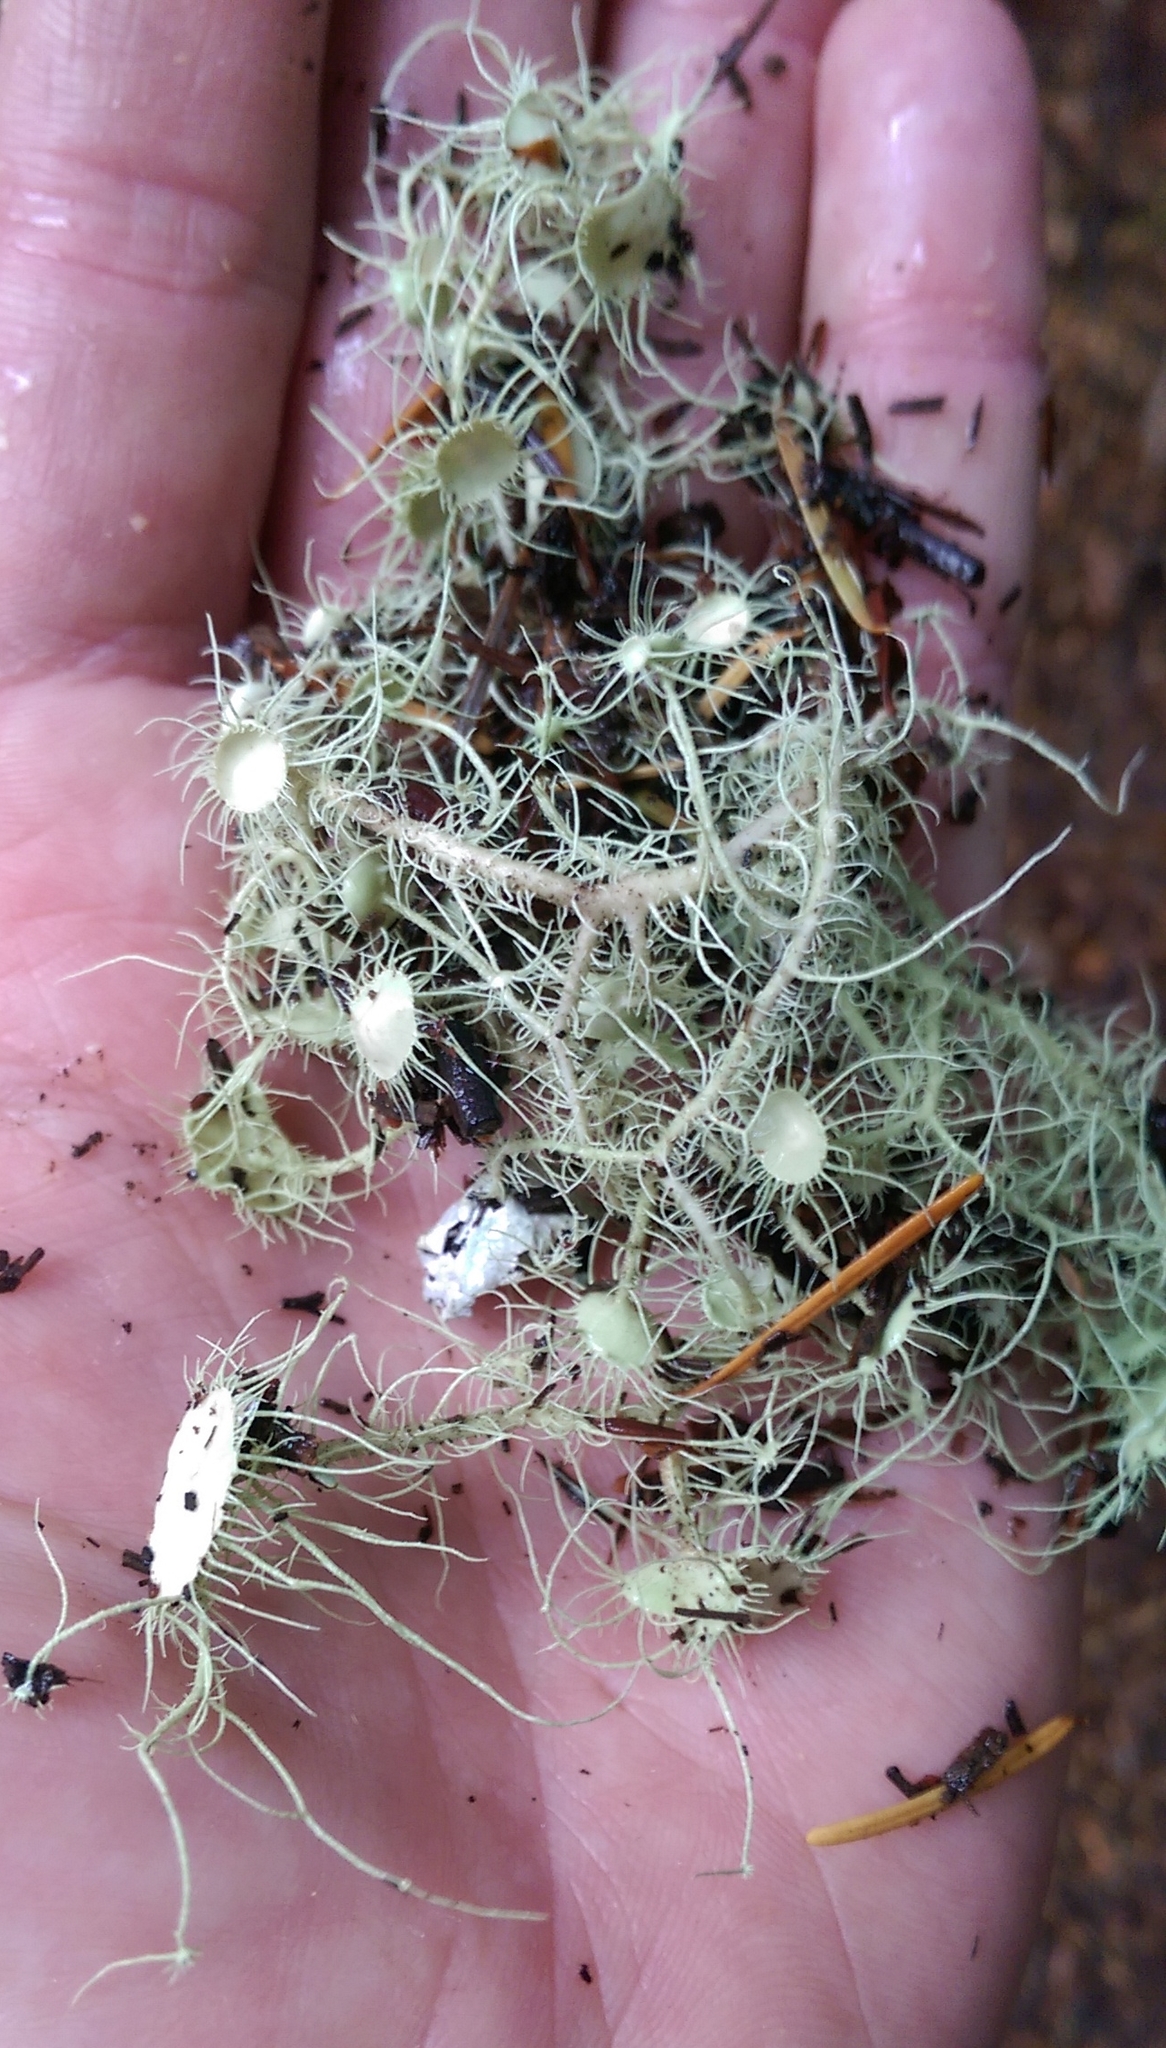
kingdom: Fungi
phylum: Ascomycota
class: Lecanoromycetes
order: Lecanorales
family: Parmeliaceae
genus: Usnea
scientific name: Usnea intermedia
